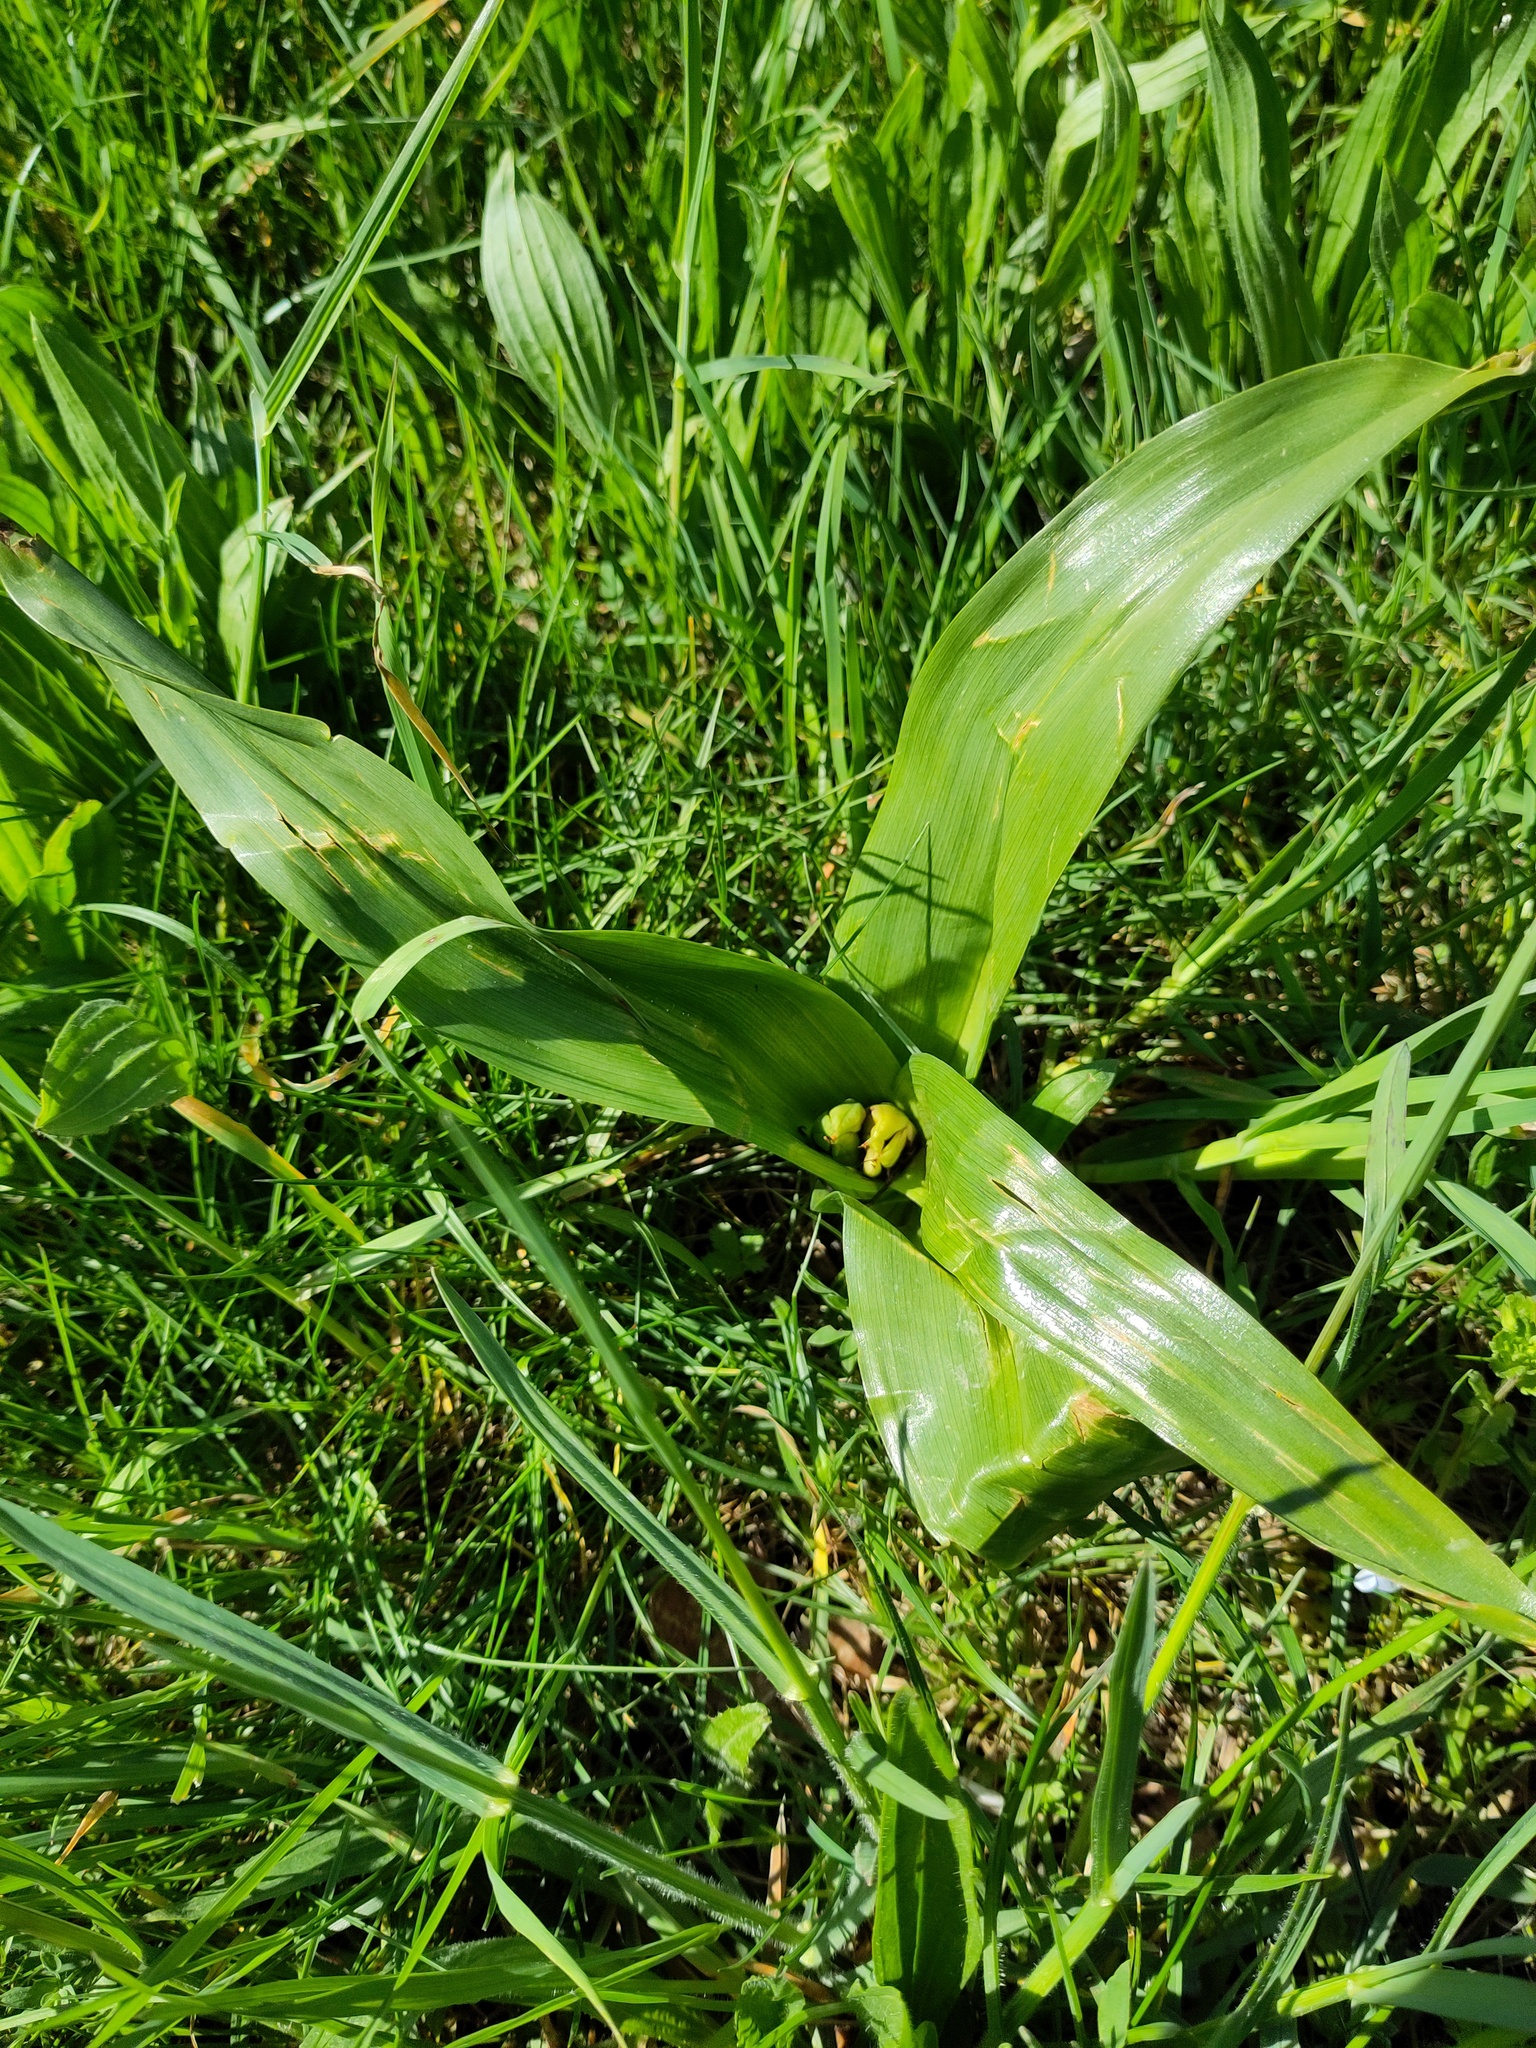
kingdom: Plantae
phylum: Tracheophyta
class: Liliopsida
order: Liliales
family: Colchicaceae
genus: Colchicum
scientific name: Colchicum autumnale
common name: Autumn crocus
